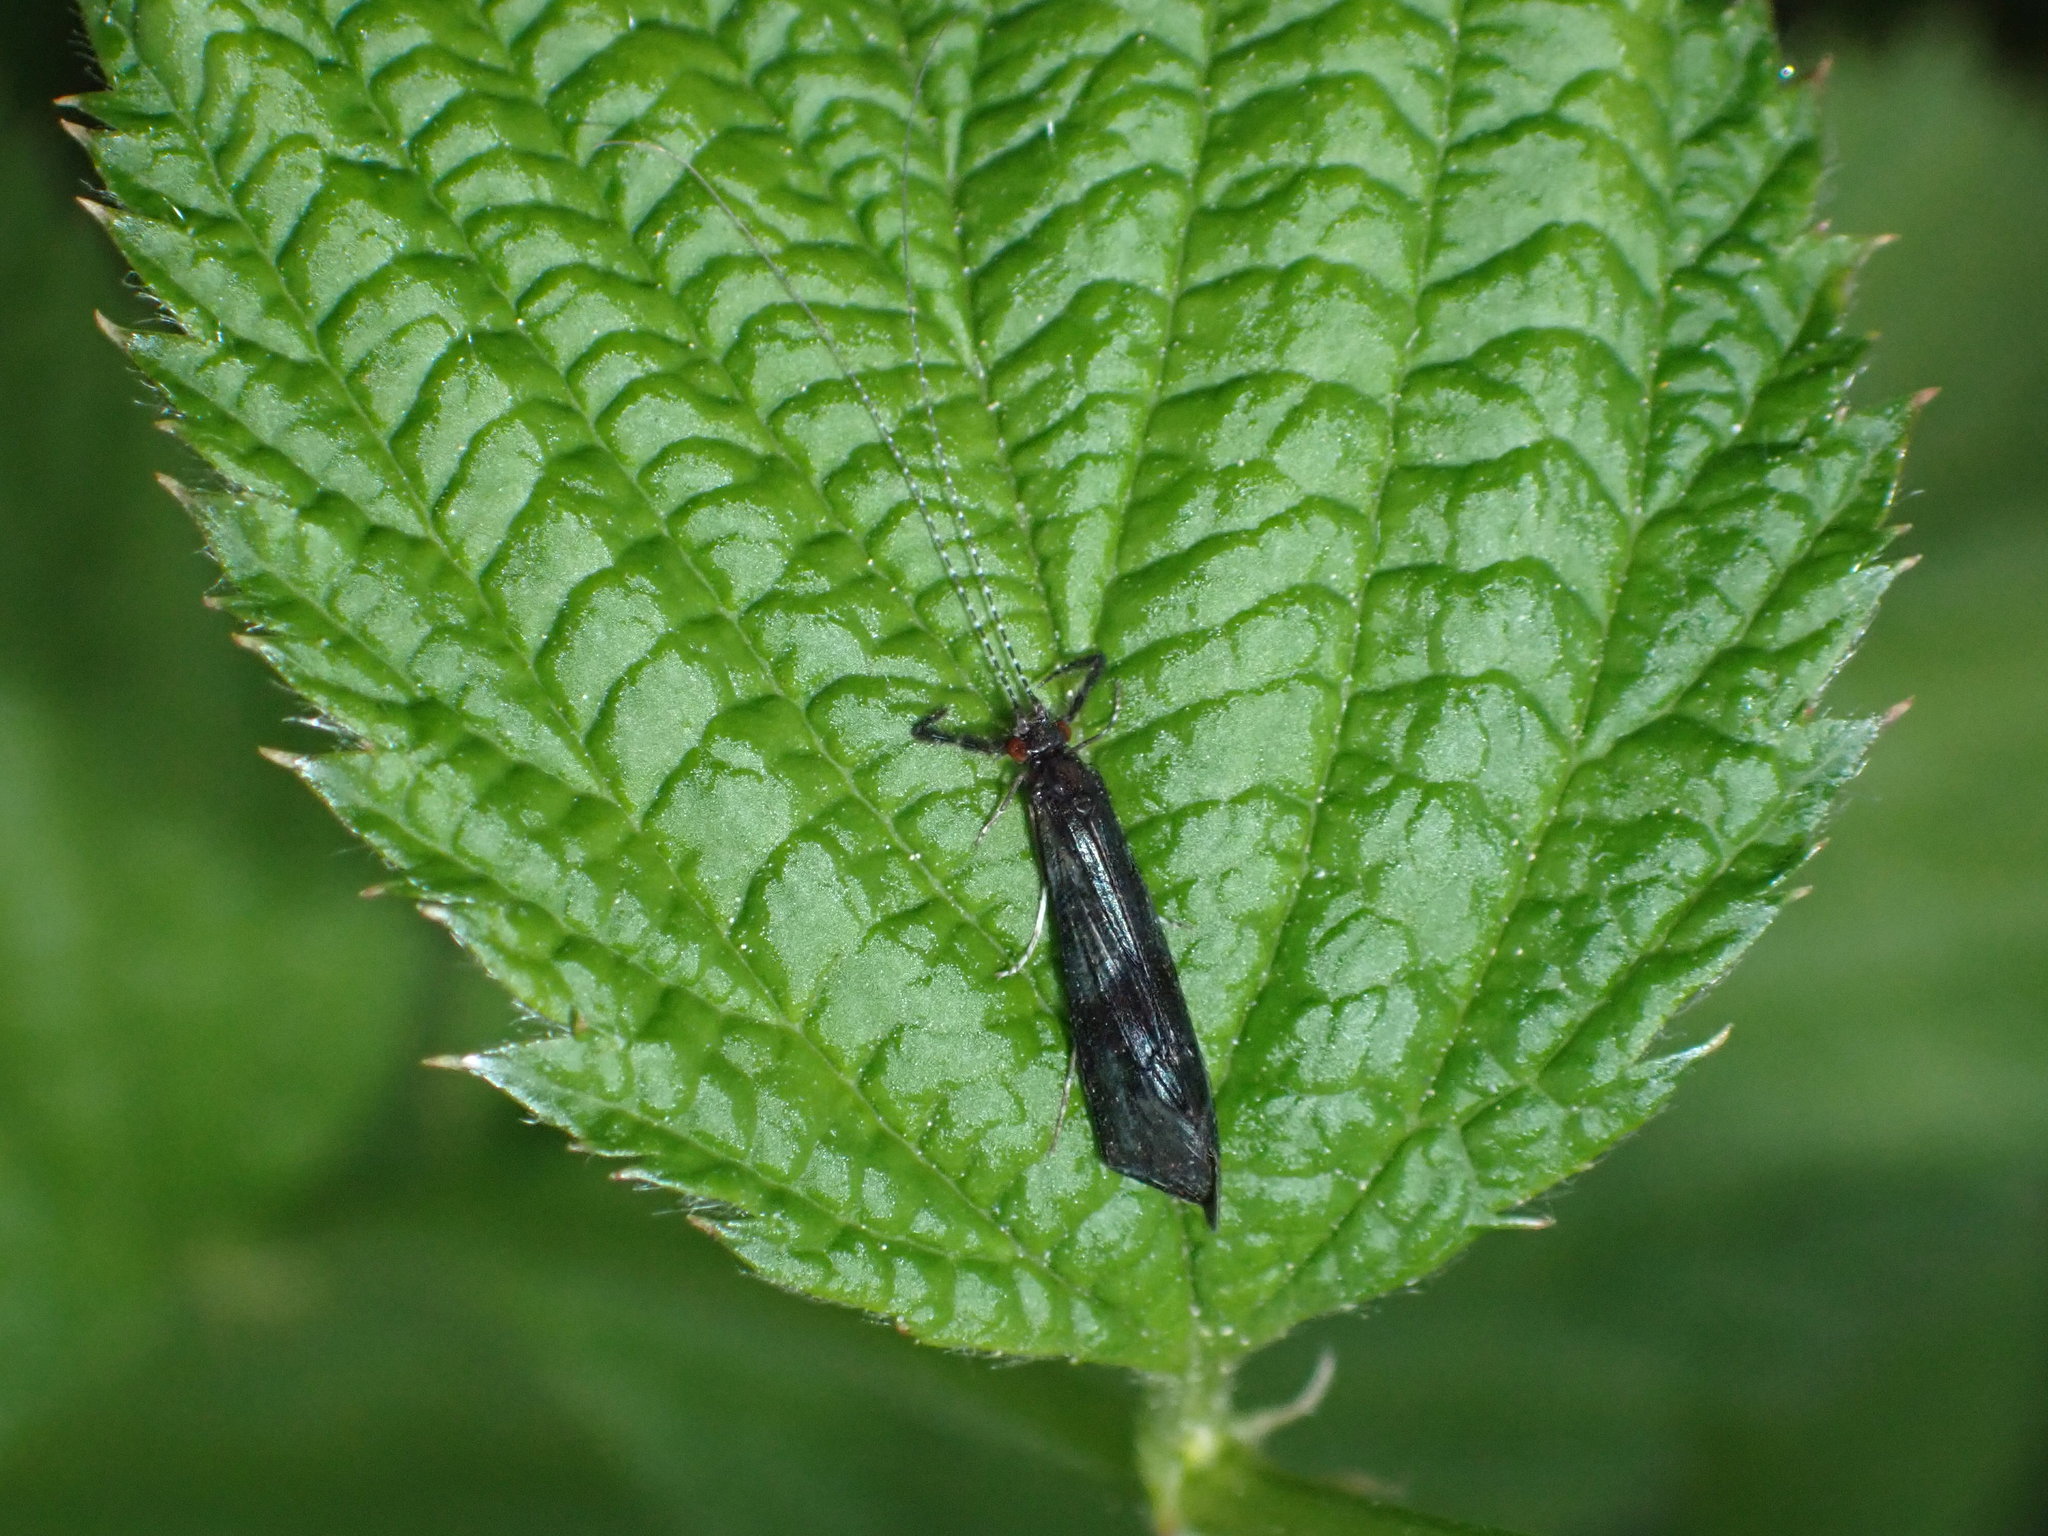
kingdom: Animalia
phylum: Arthropoda
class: Insecta
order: Trichoptera
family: Leptoceridae
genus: Mystacides
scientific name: Mystacides azureus
